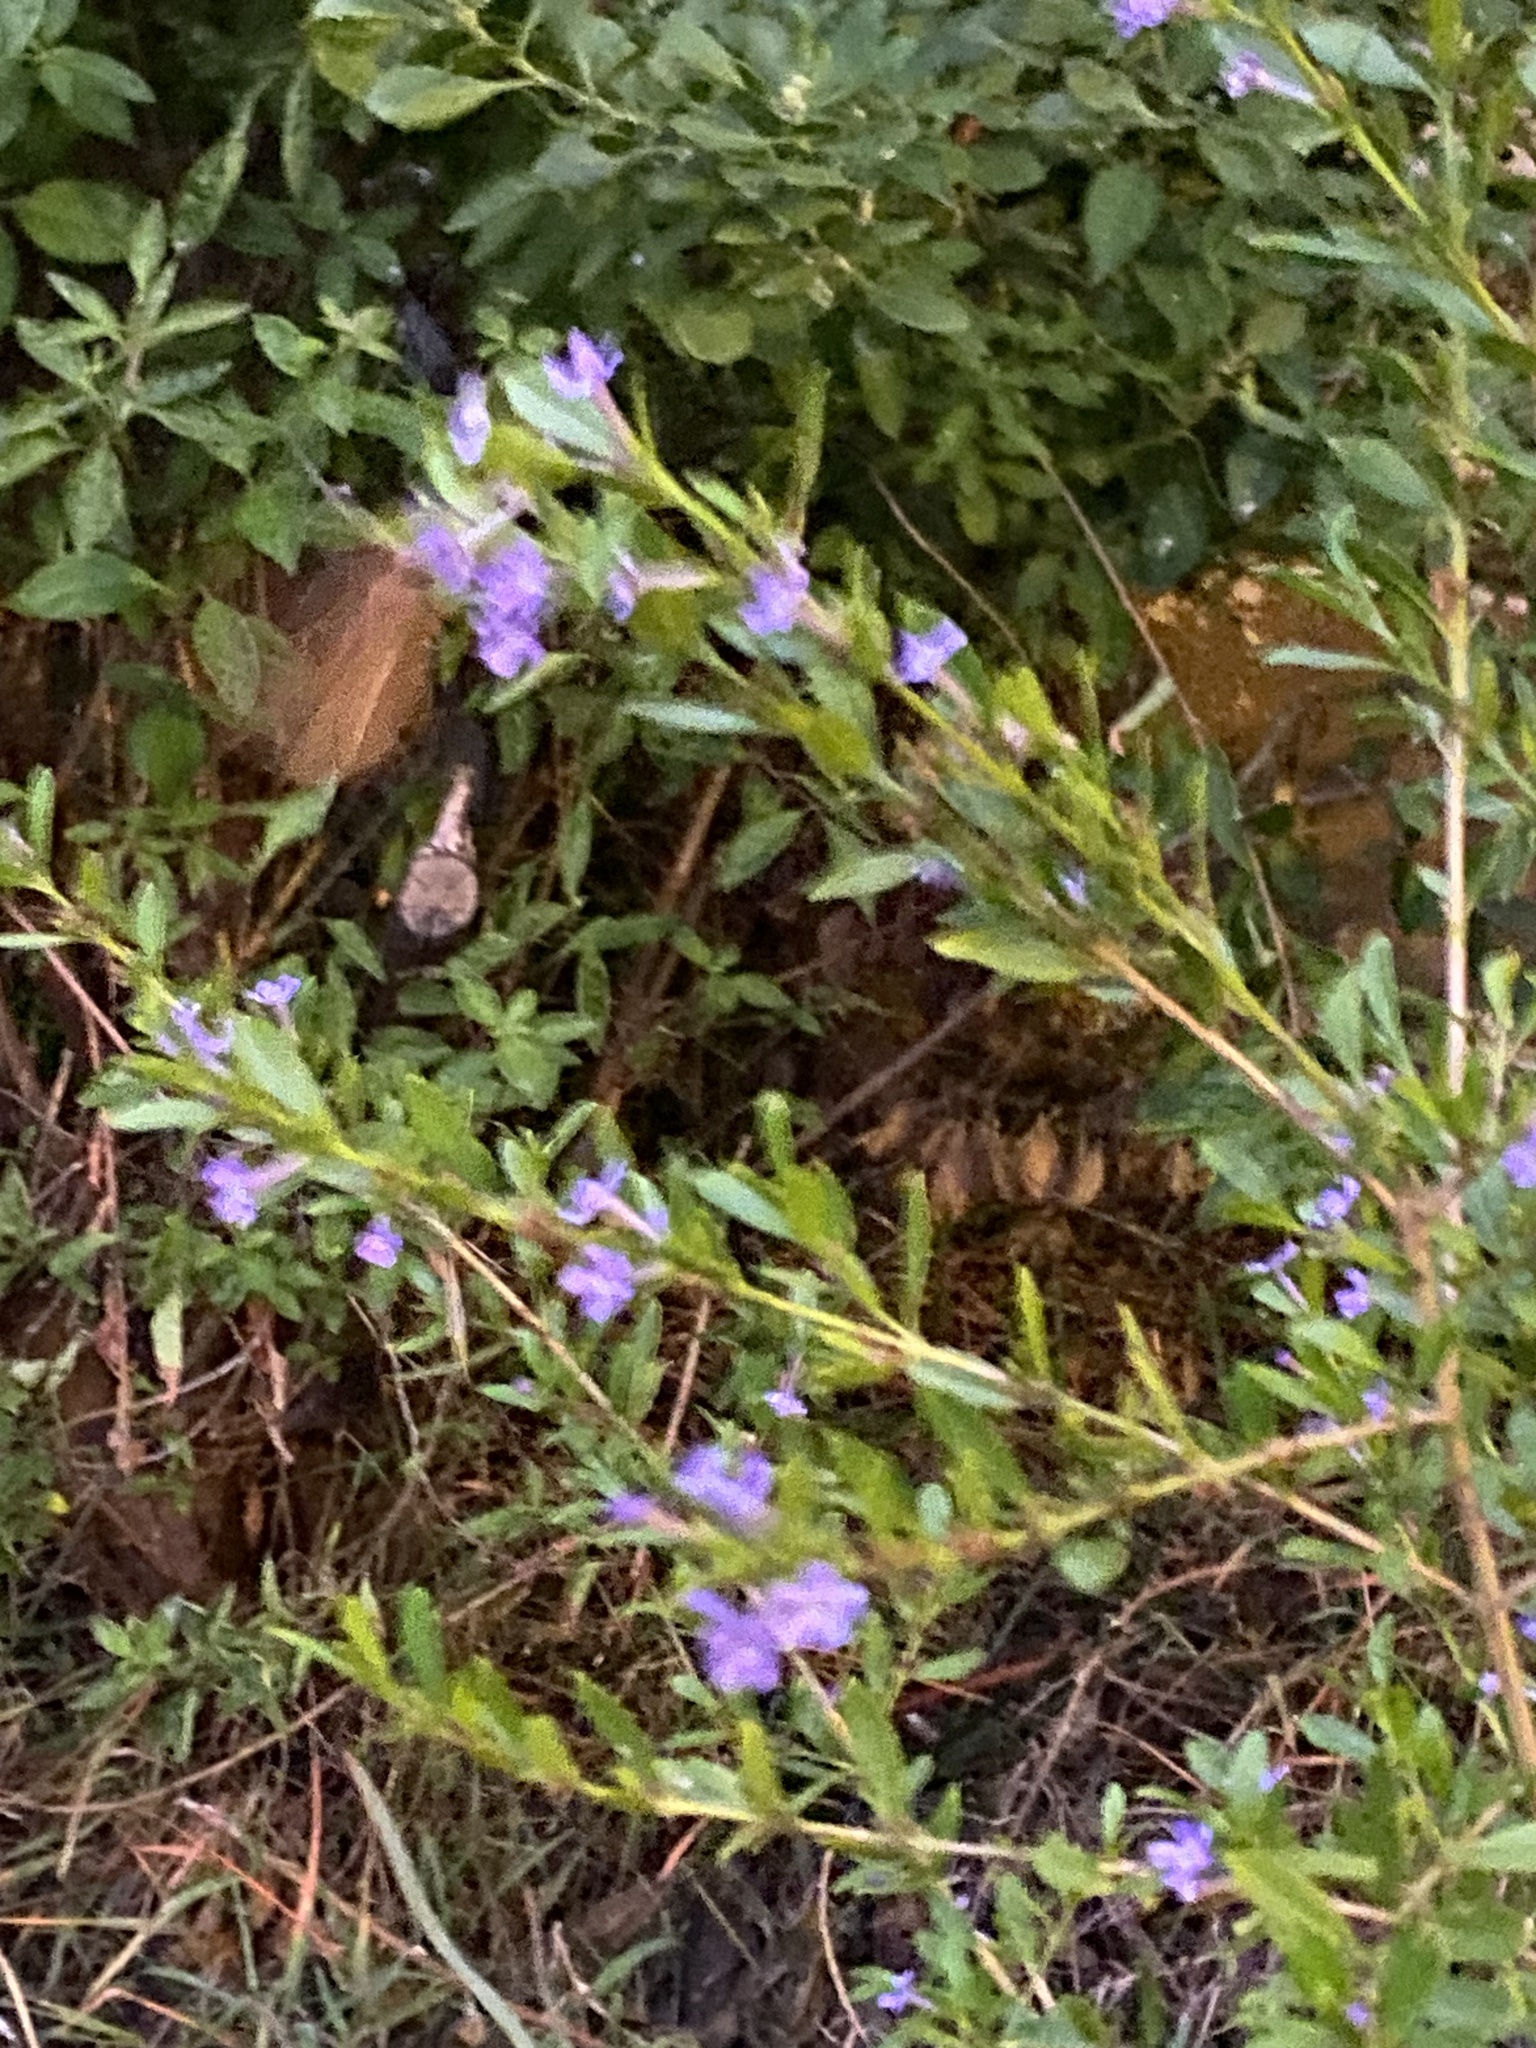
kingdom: Animalia
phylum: Arthropoda
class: Insecta
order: Lepidoptera
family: Hesperiidae
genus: Zophopetes
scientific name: Zophopetes dysmephila
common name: Palm-tree nightfighter
